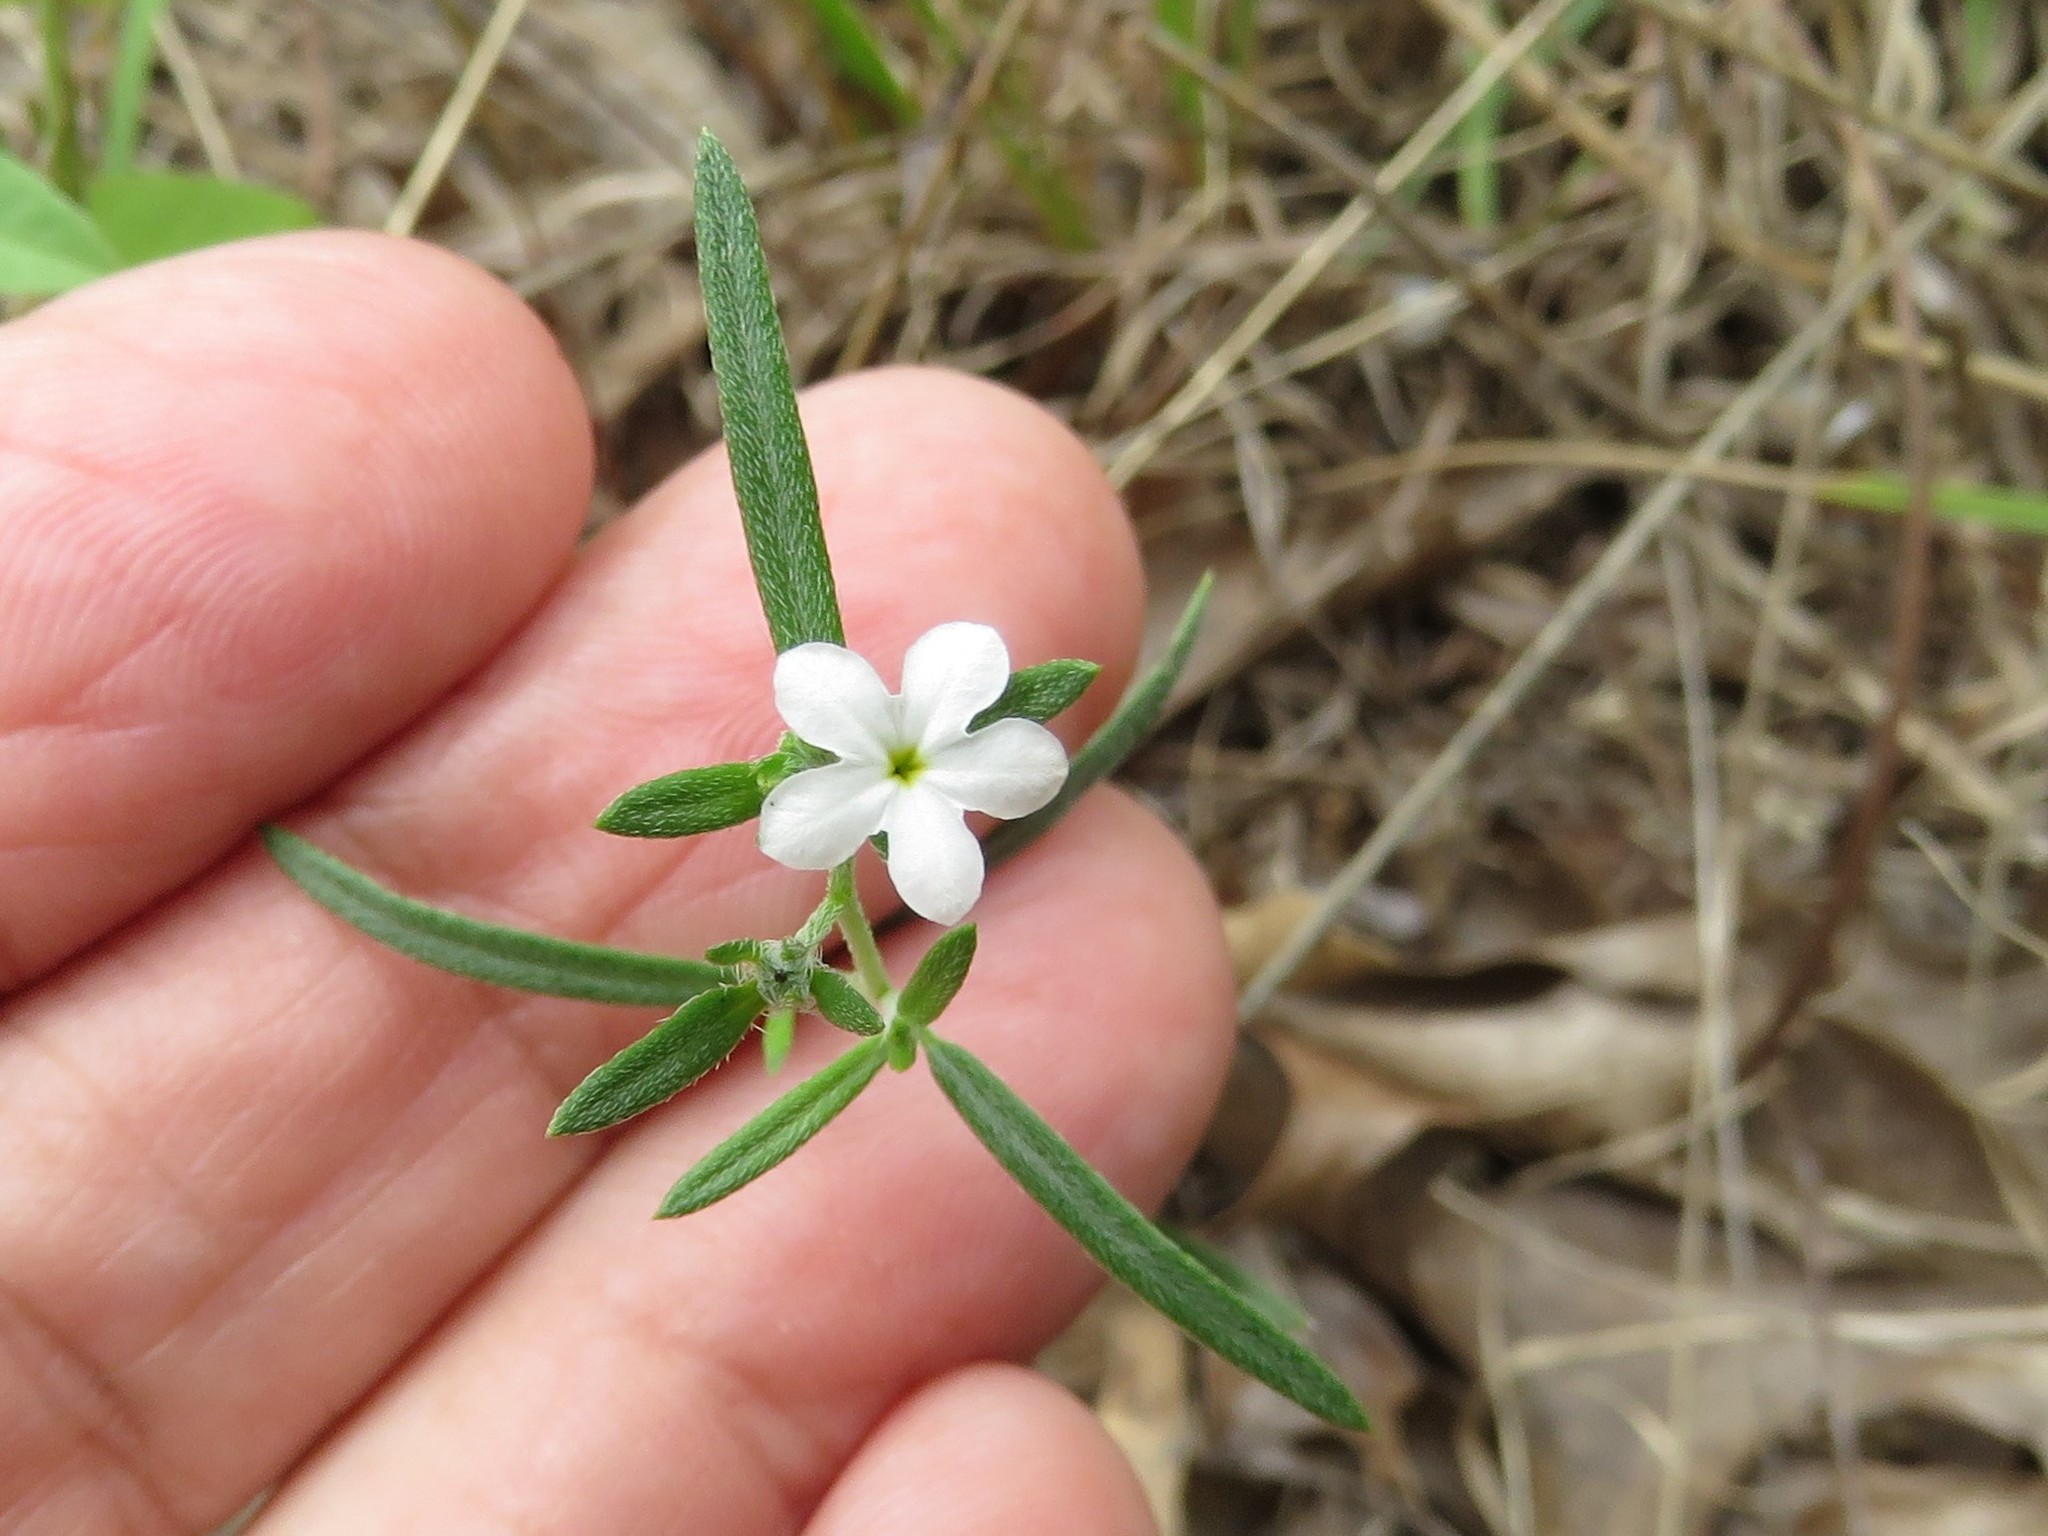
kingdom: Plantae
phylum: Tracheophyta
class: Magnoliopsida
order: Boraginales
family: Heliotropiaceae
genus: Euploca
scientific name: Euploca tenella
